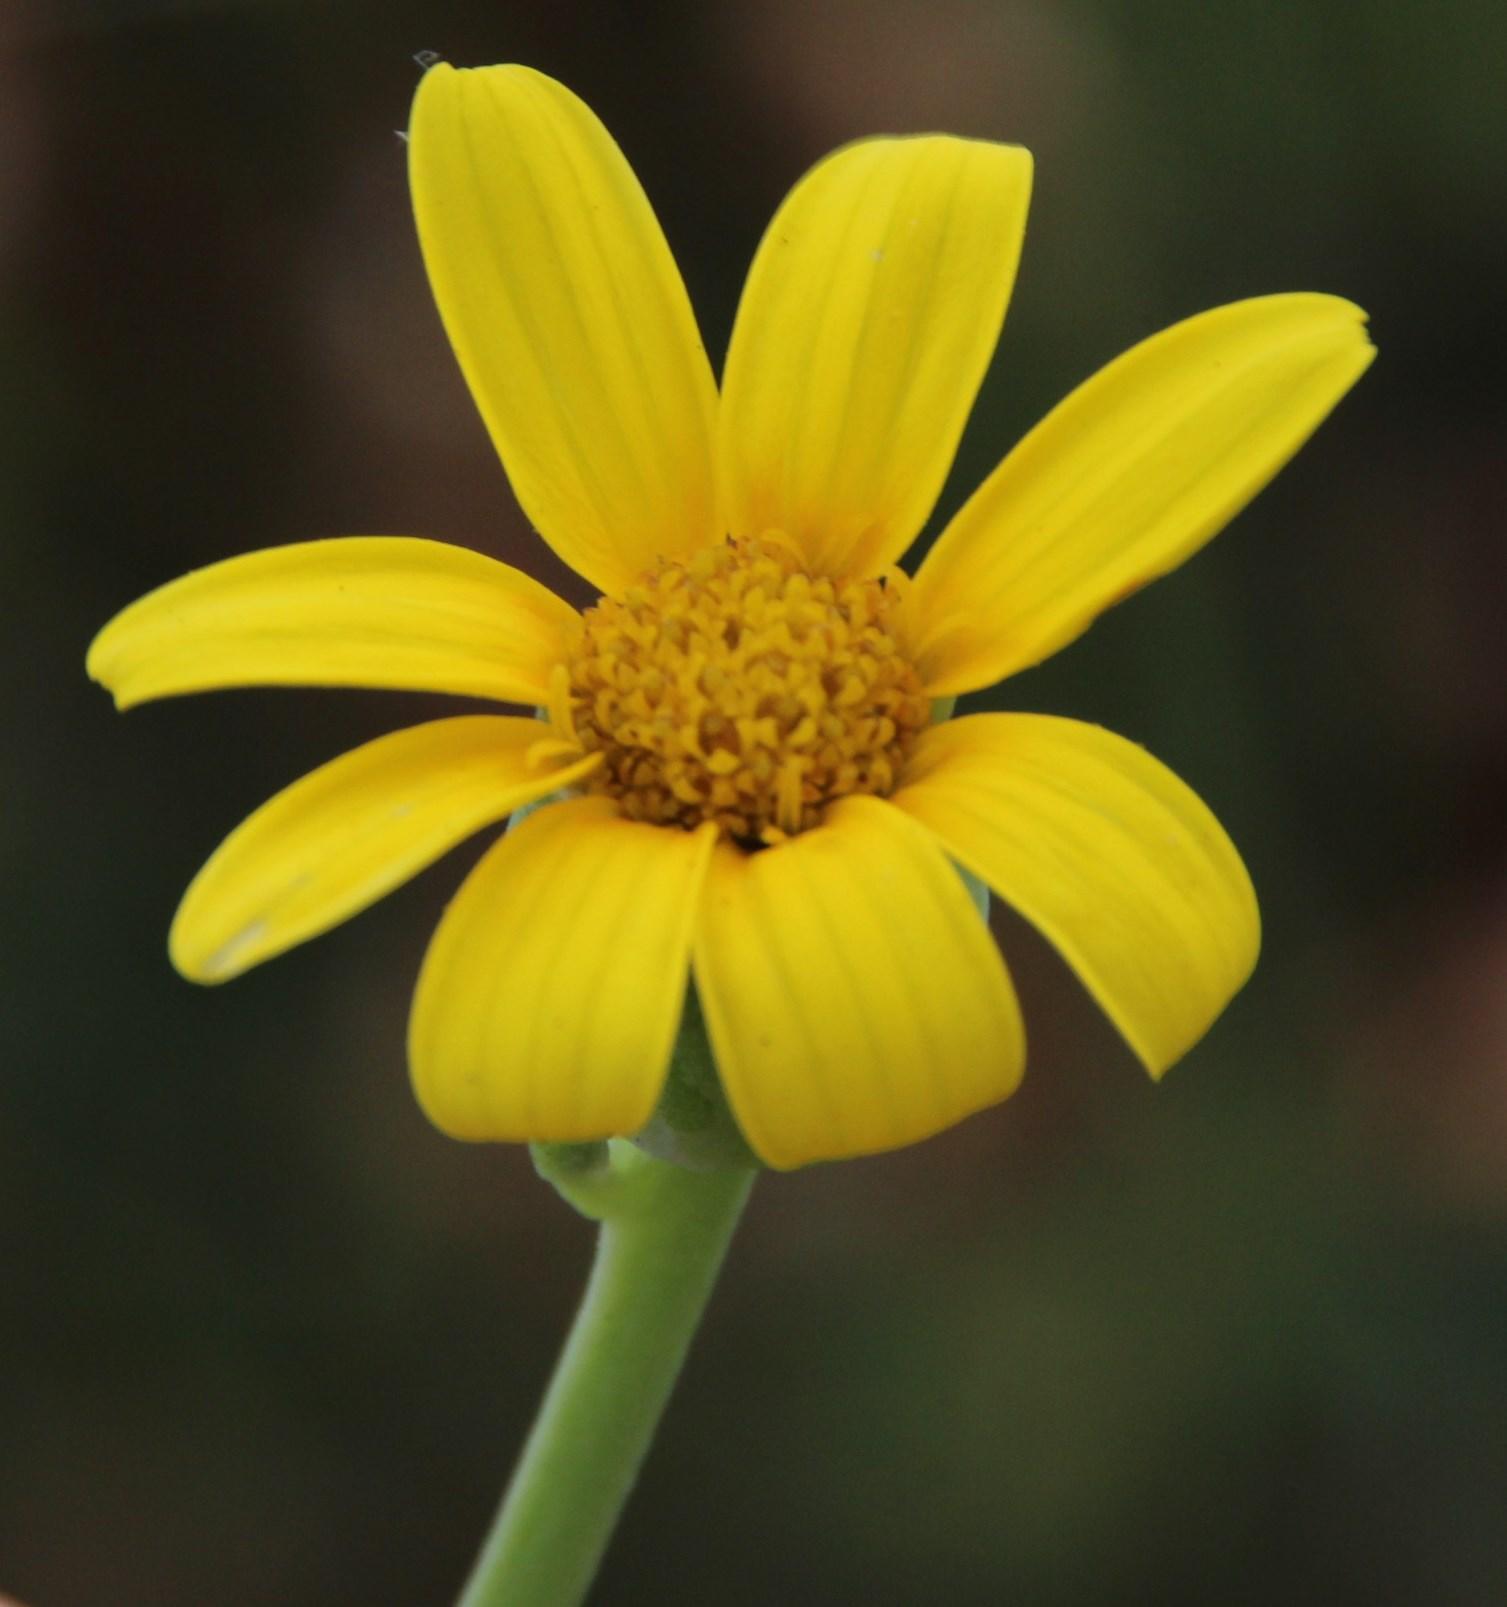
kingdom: Plantae
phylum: Tracheophyta
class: Magnoliopsida
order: Asterales
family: Asteraceae
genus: Othonna
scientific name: Othonna coronopifolia
